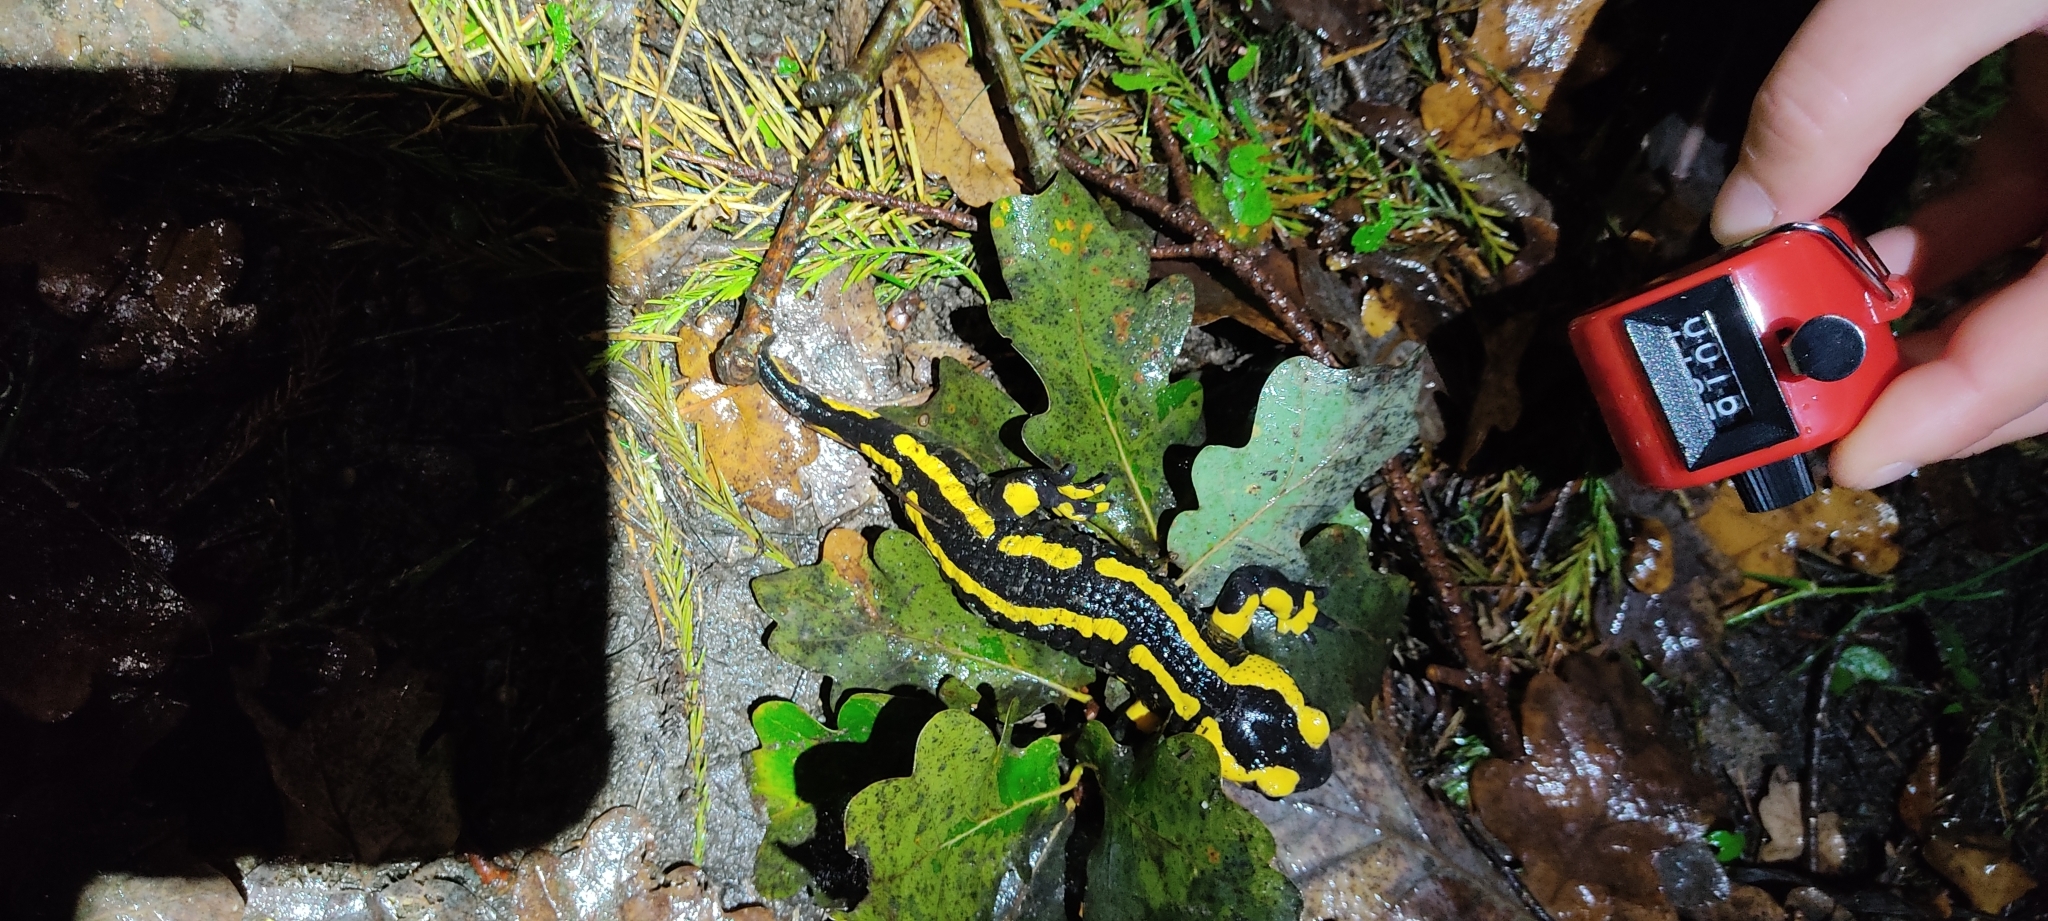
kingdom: Animalia
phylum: Chordata
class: Amphibia
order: Caudata
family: Salamandridae
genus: Salamandra
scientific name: Salamandra salamandra
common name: Fire salamander
